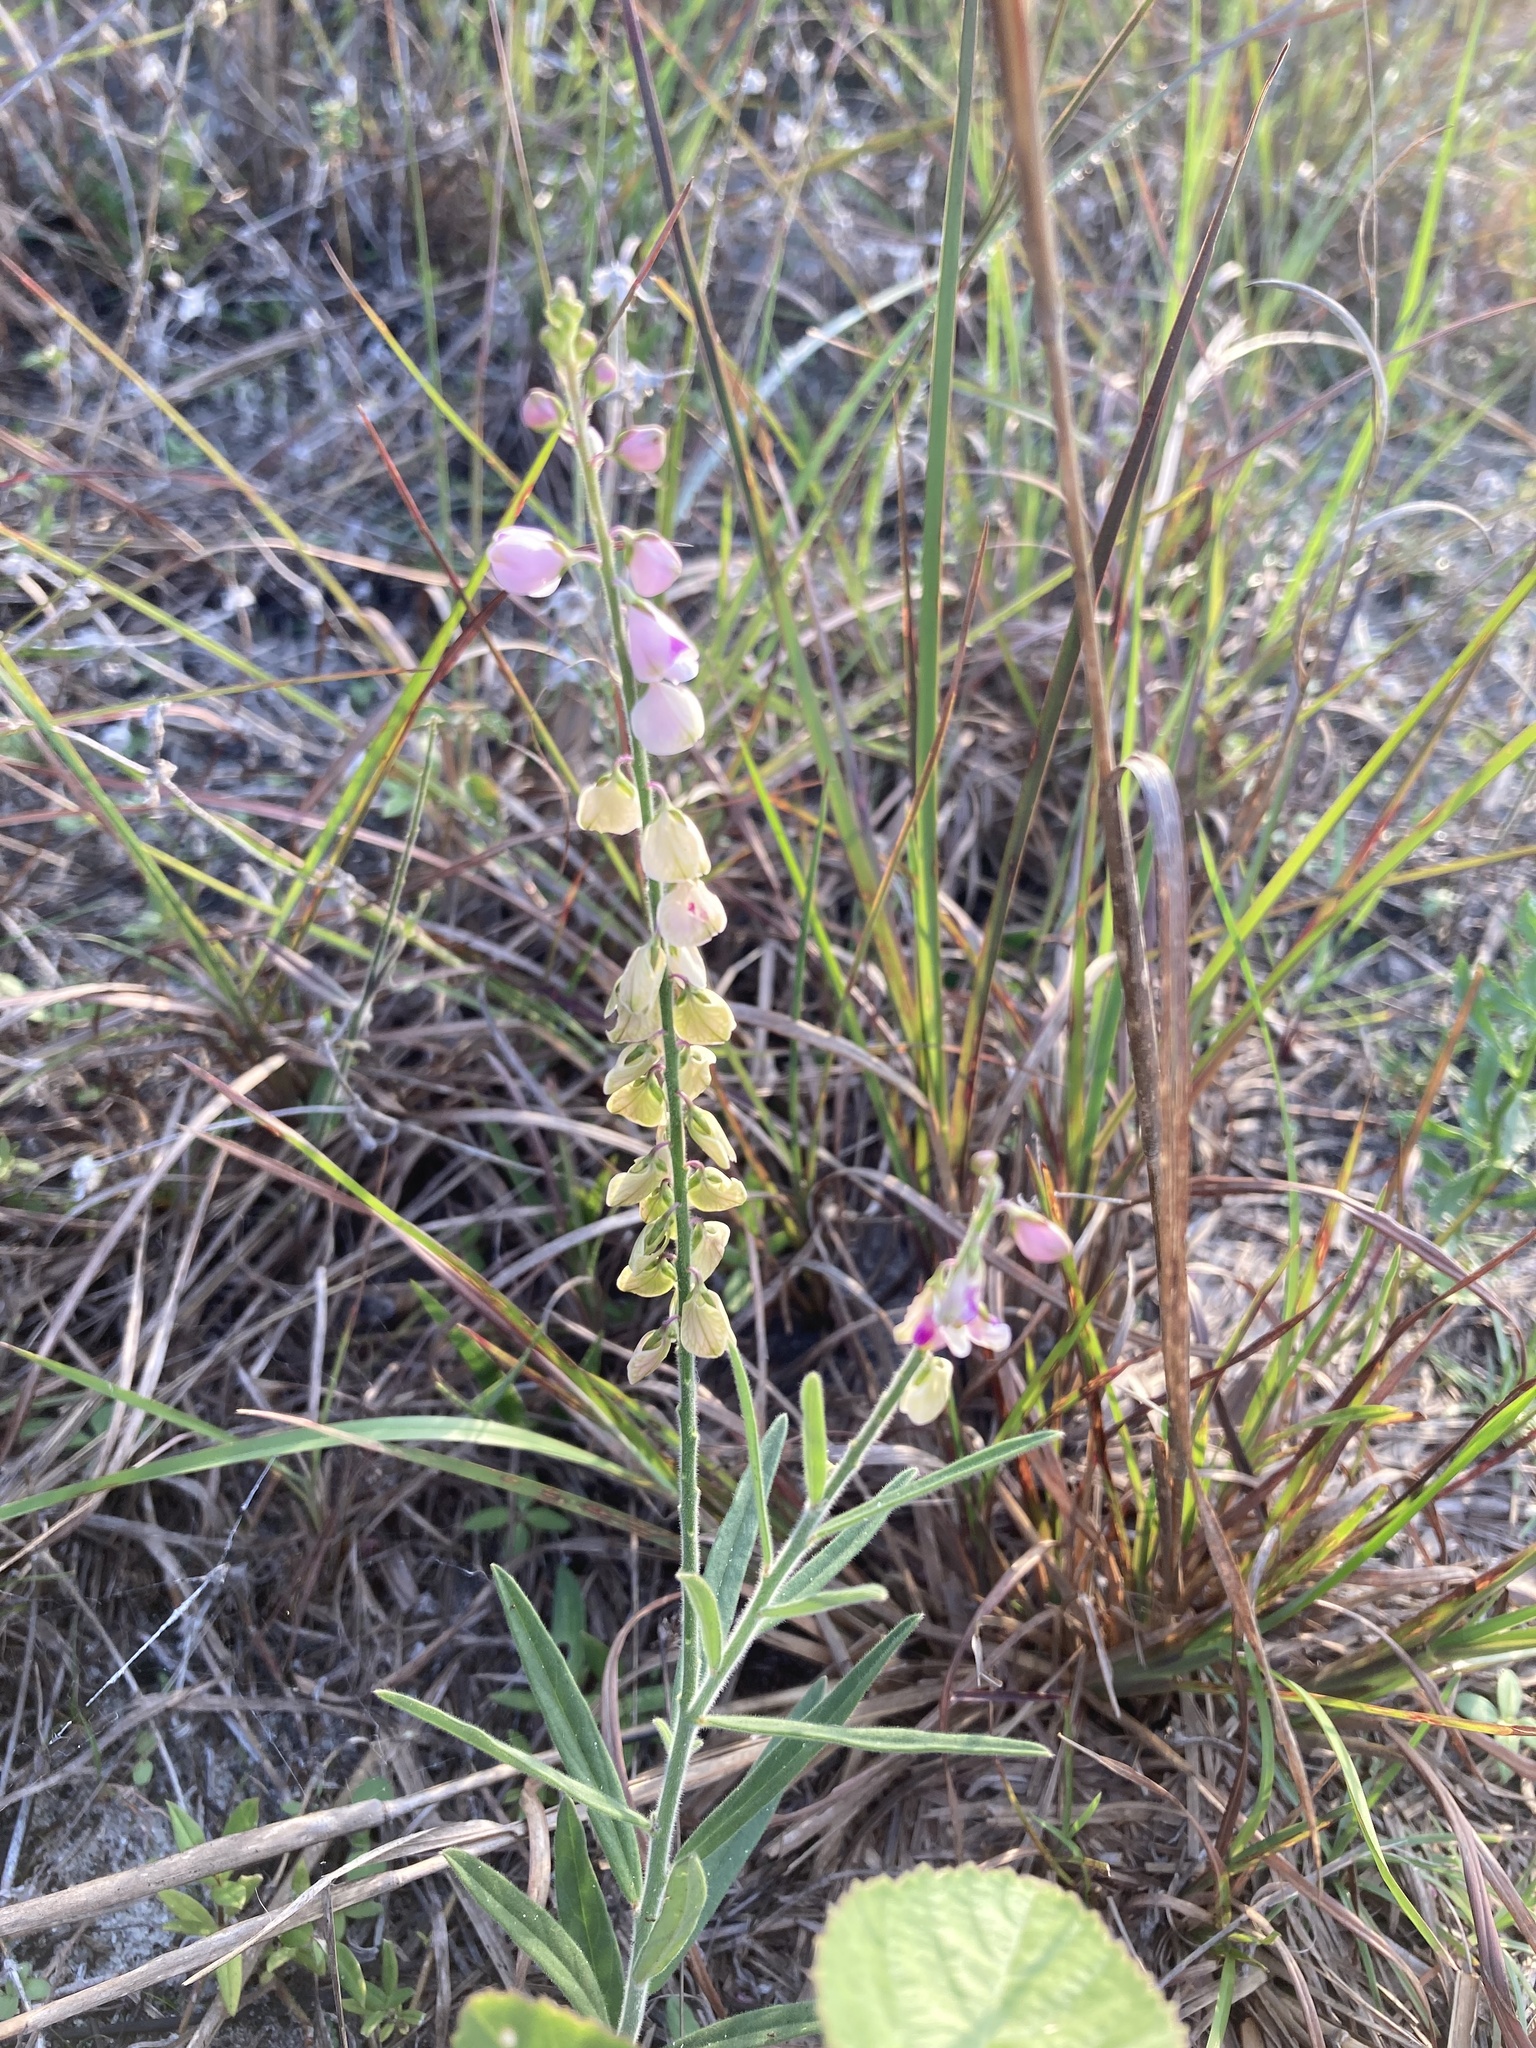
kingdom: Plantae
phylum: Tracheophyta
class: Magnoliopsida
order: Fabales
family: Polygalaceae
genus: Asemeia
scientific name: Asemeia grandiflora
